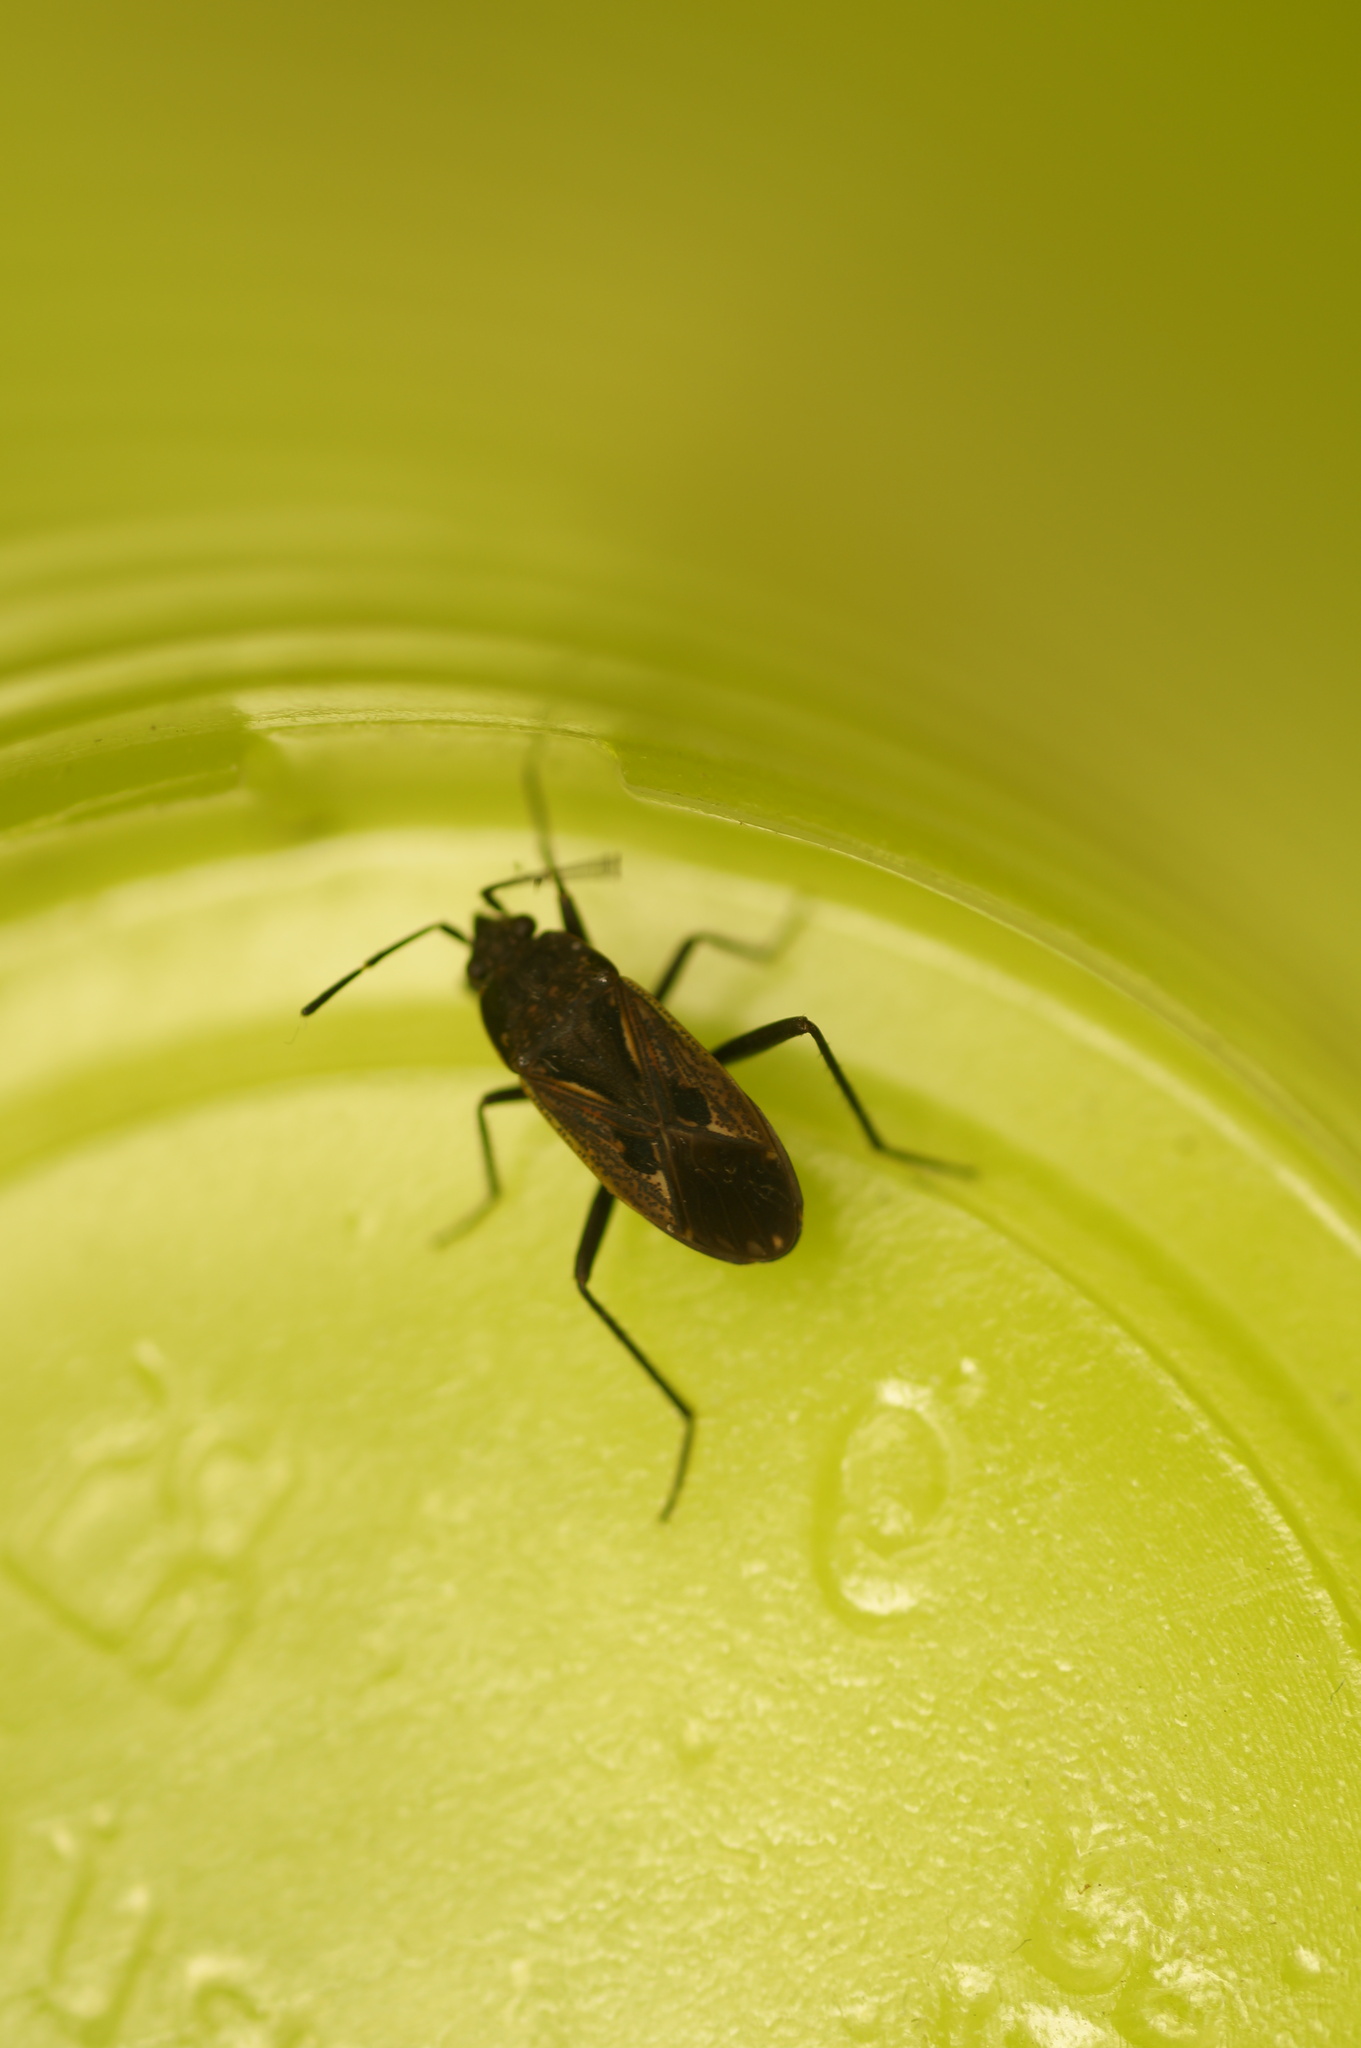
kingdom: Animalia
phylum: Arthropoda
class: Insecta
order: Hemiptera
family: Rhyparochromidae
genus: Rhyparochromus
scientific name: Rhyparochromus pini
